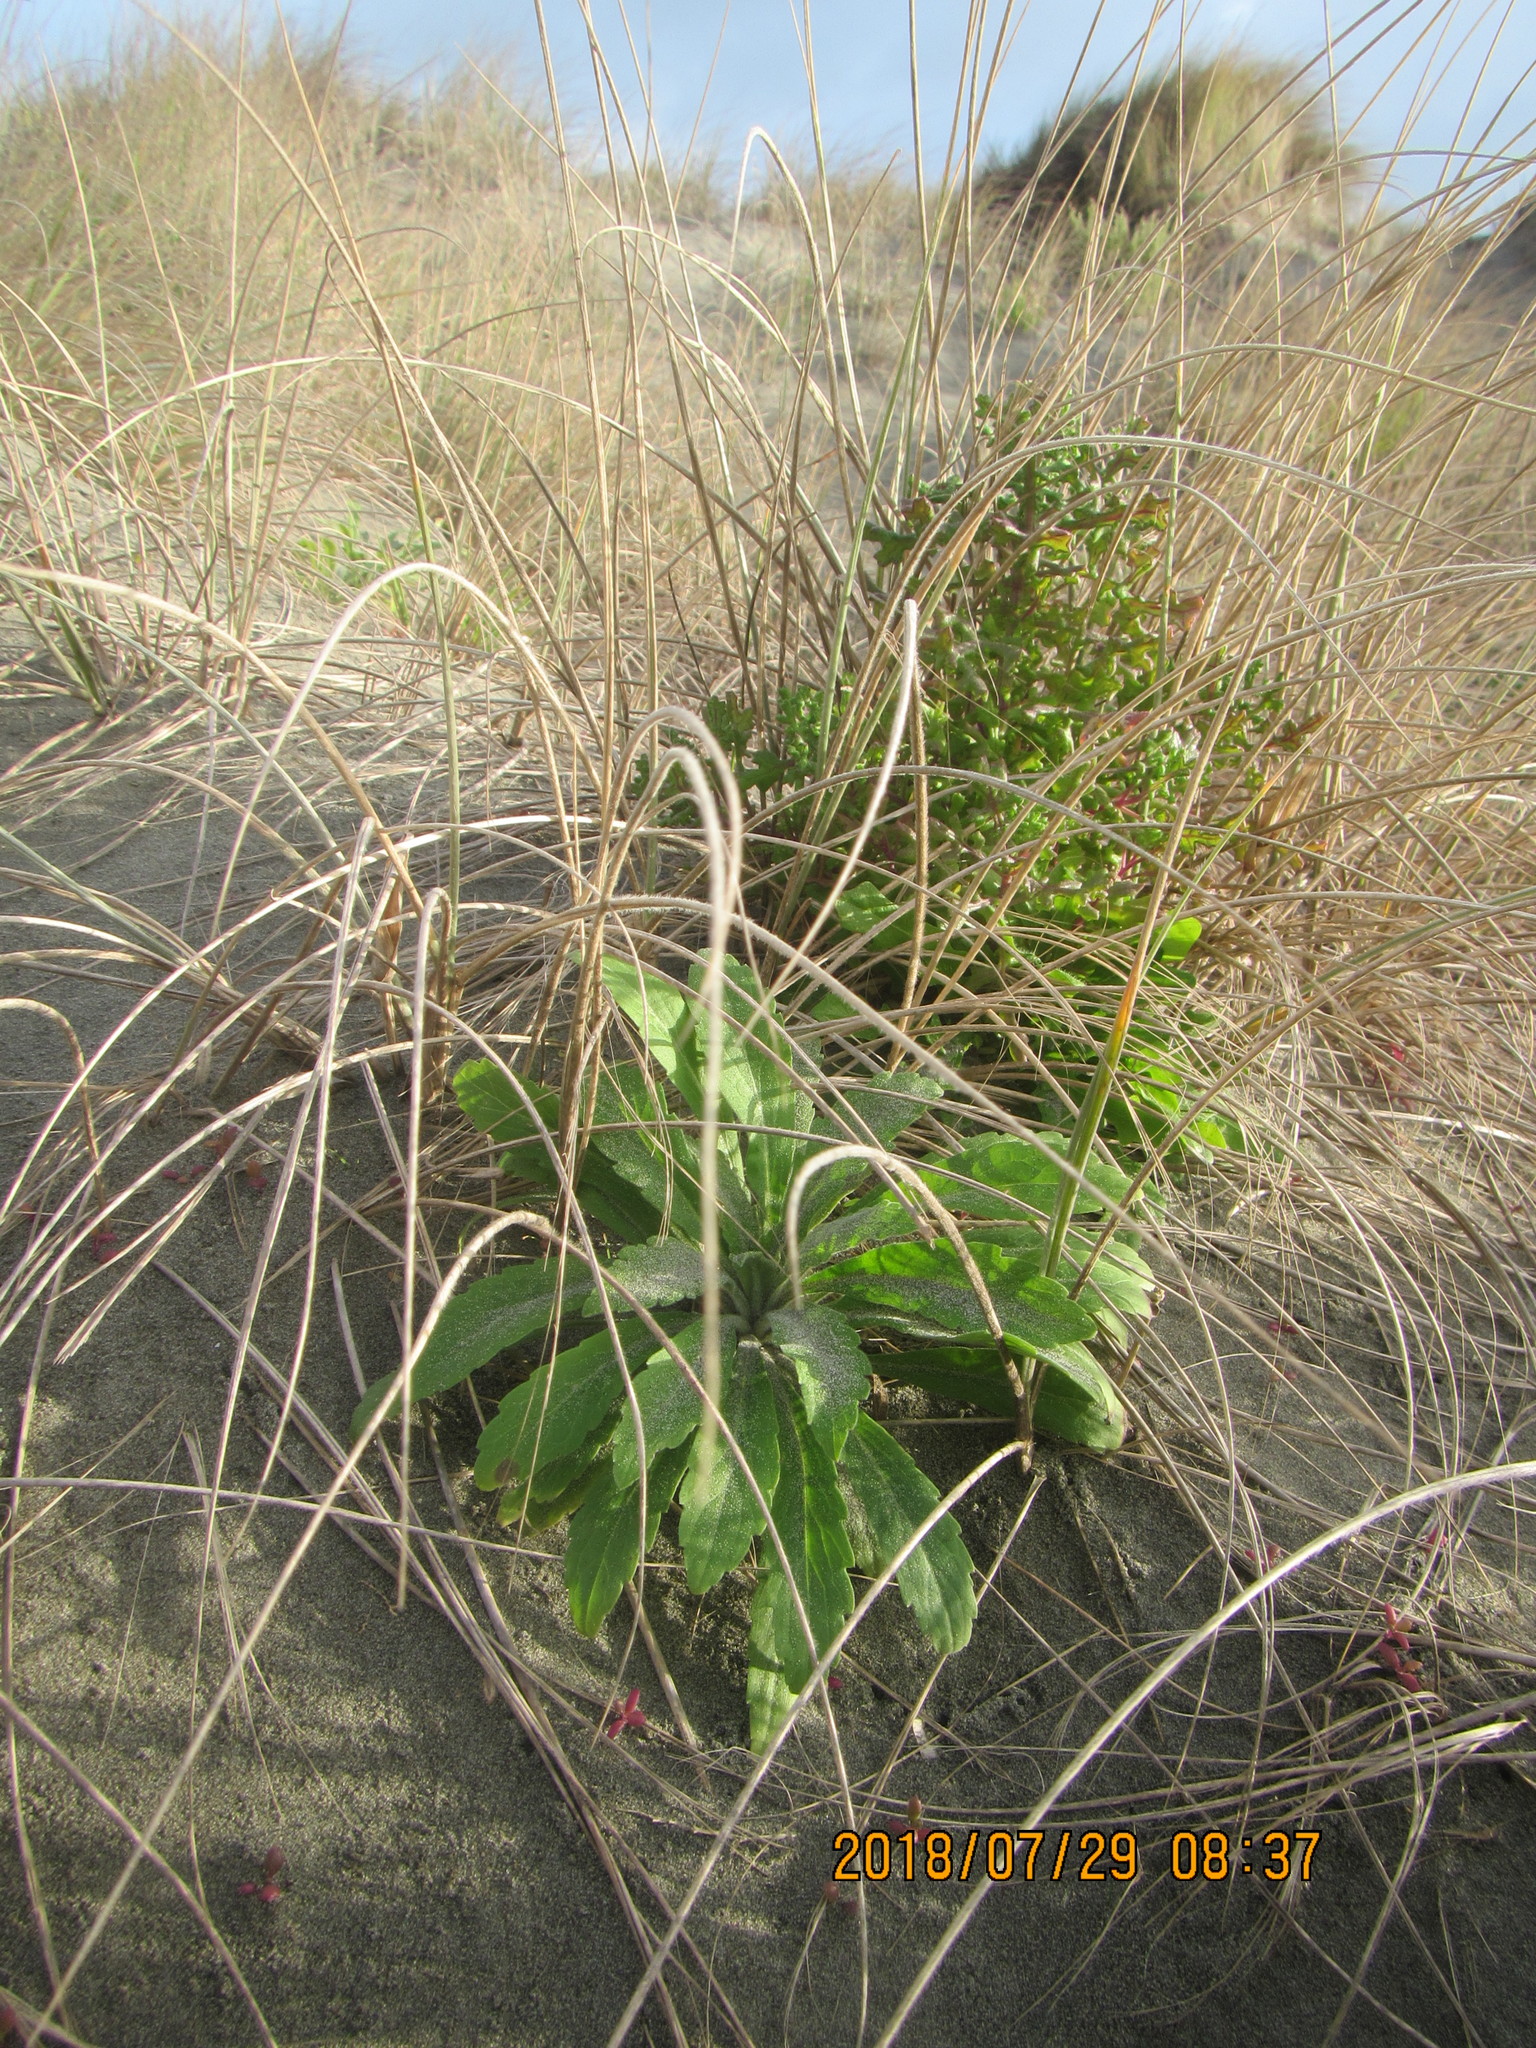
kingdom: Plantae
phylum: Tracheophyta
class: Magnoliopsida
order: Asterales
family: Asteraceae
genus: Erigeron
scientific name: Erigeron sumatrensis
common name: Daisy
